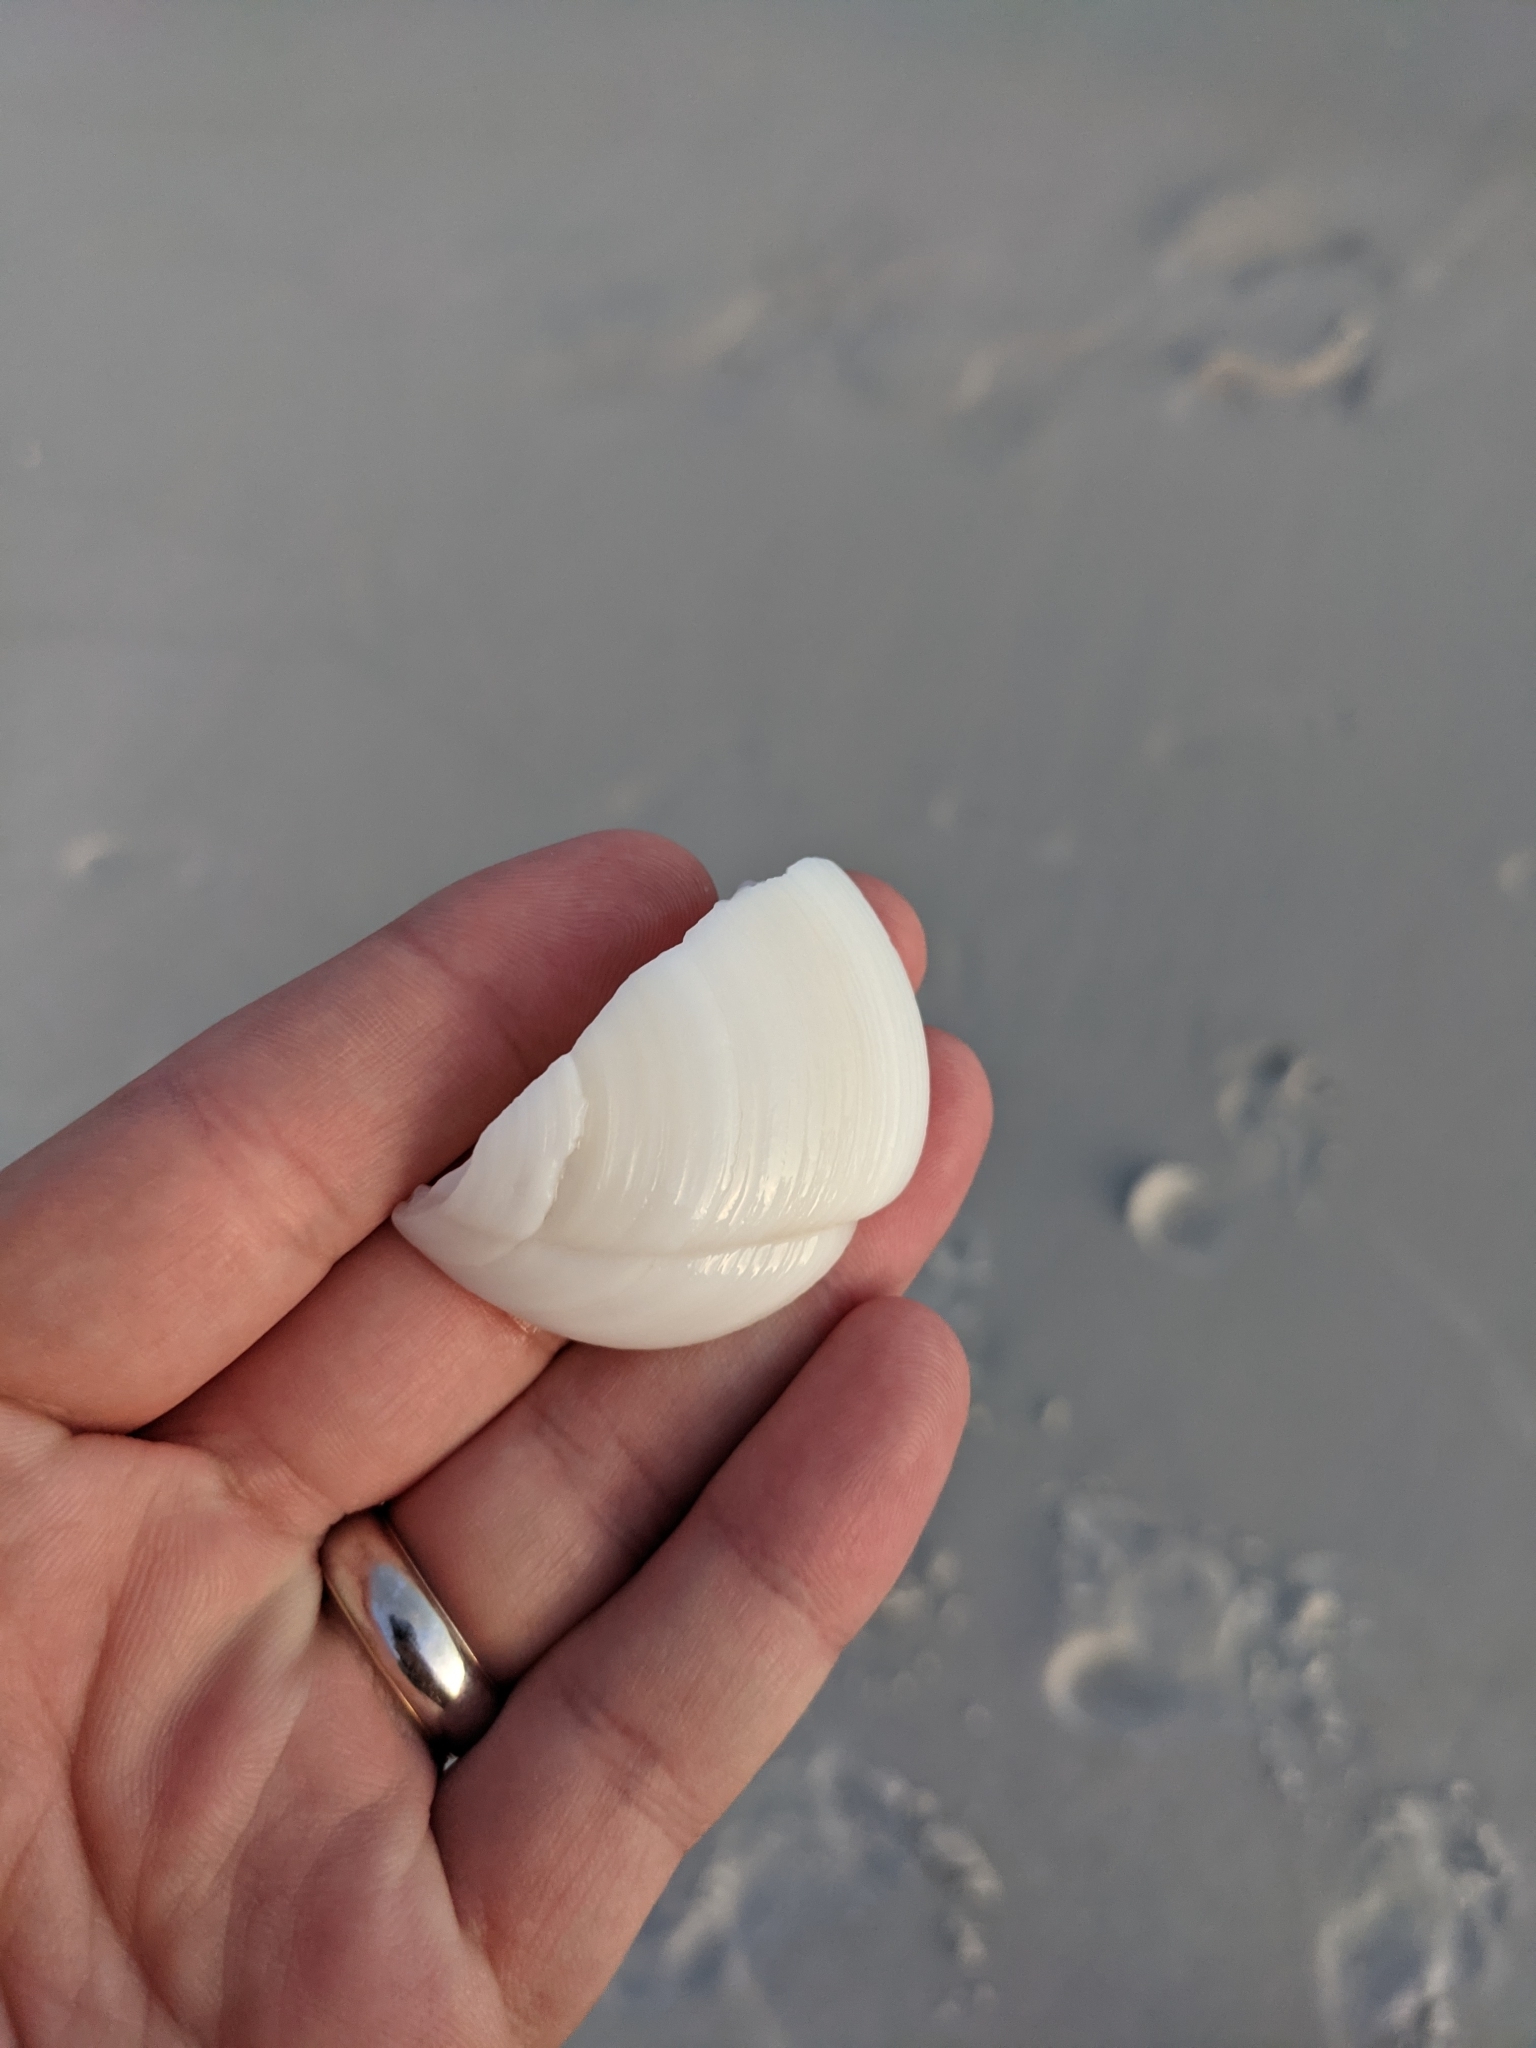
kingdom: Animalia
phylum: Mollusca
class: Bivalvia
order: Lucinida
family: Lucinidae
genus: Lucina
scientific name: Lucina pensylvanica
